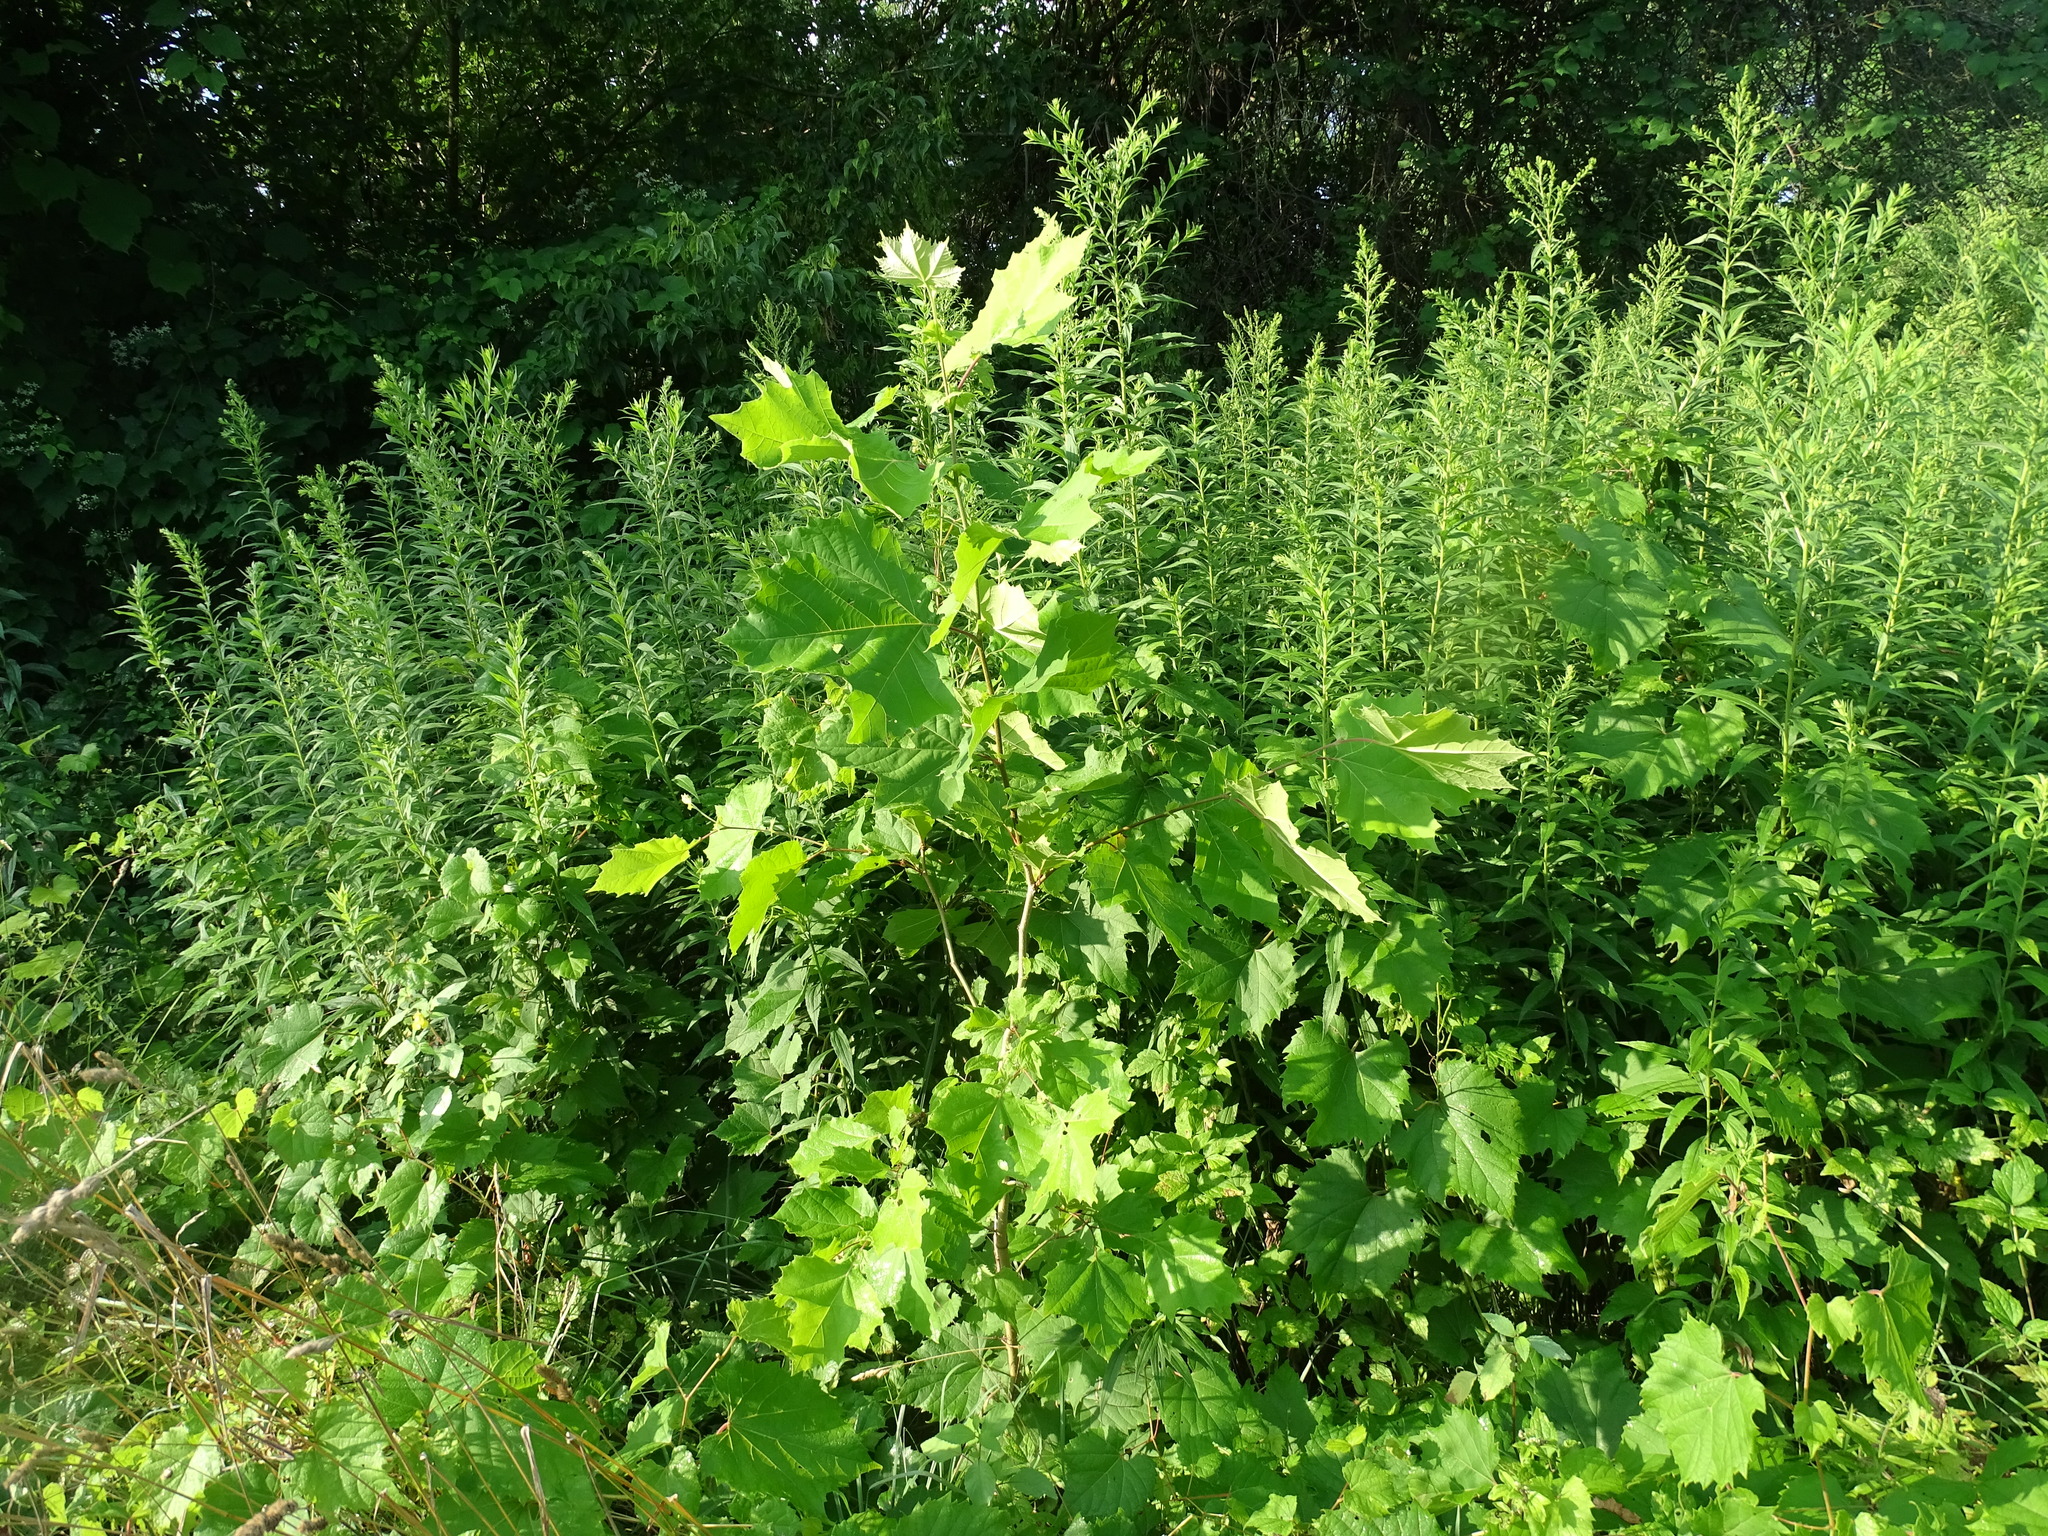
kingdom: Plantae
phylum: Tracheophyta
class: Magnoliopsida
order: Proteales
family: Platanaceae
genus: Platanus
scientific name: Platanus occidentalis
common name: American sycamore
